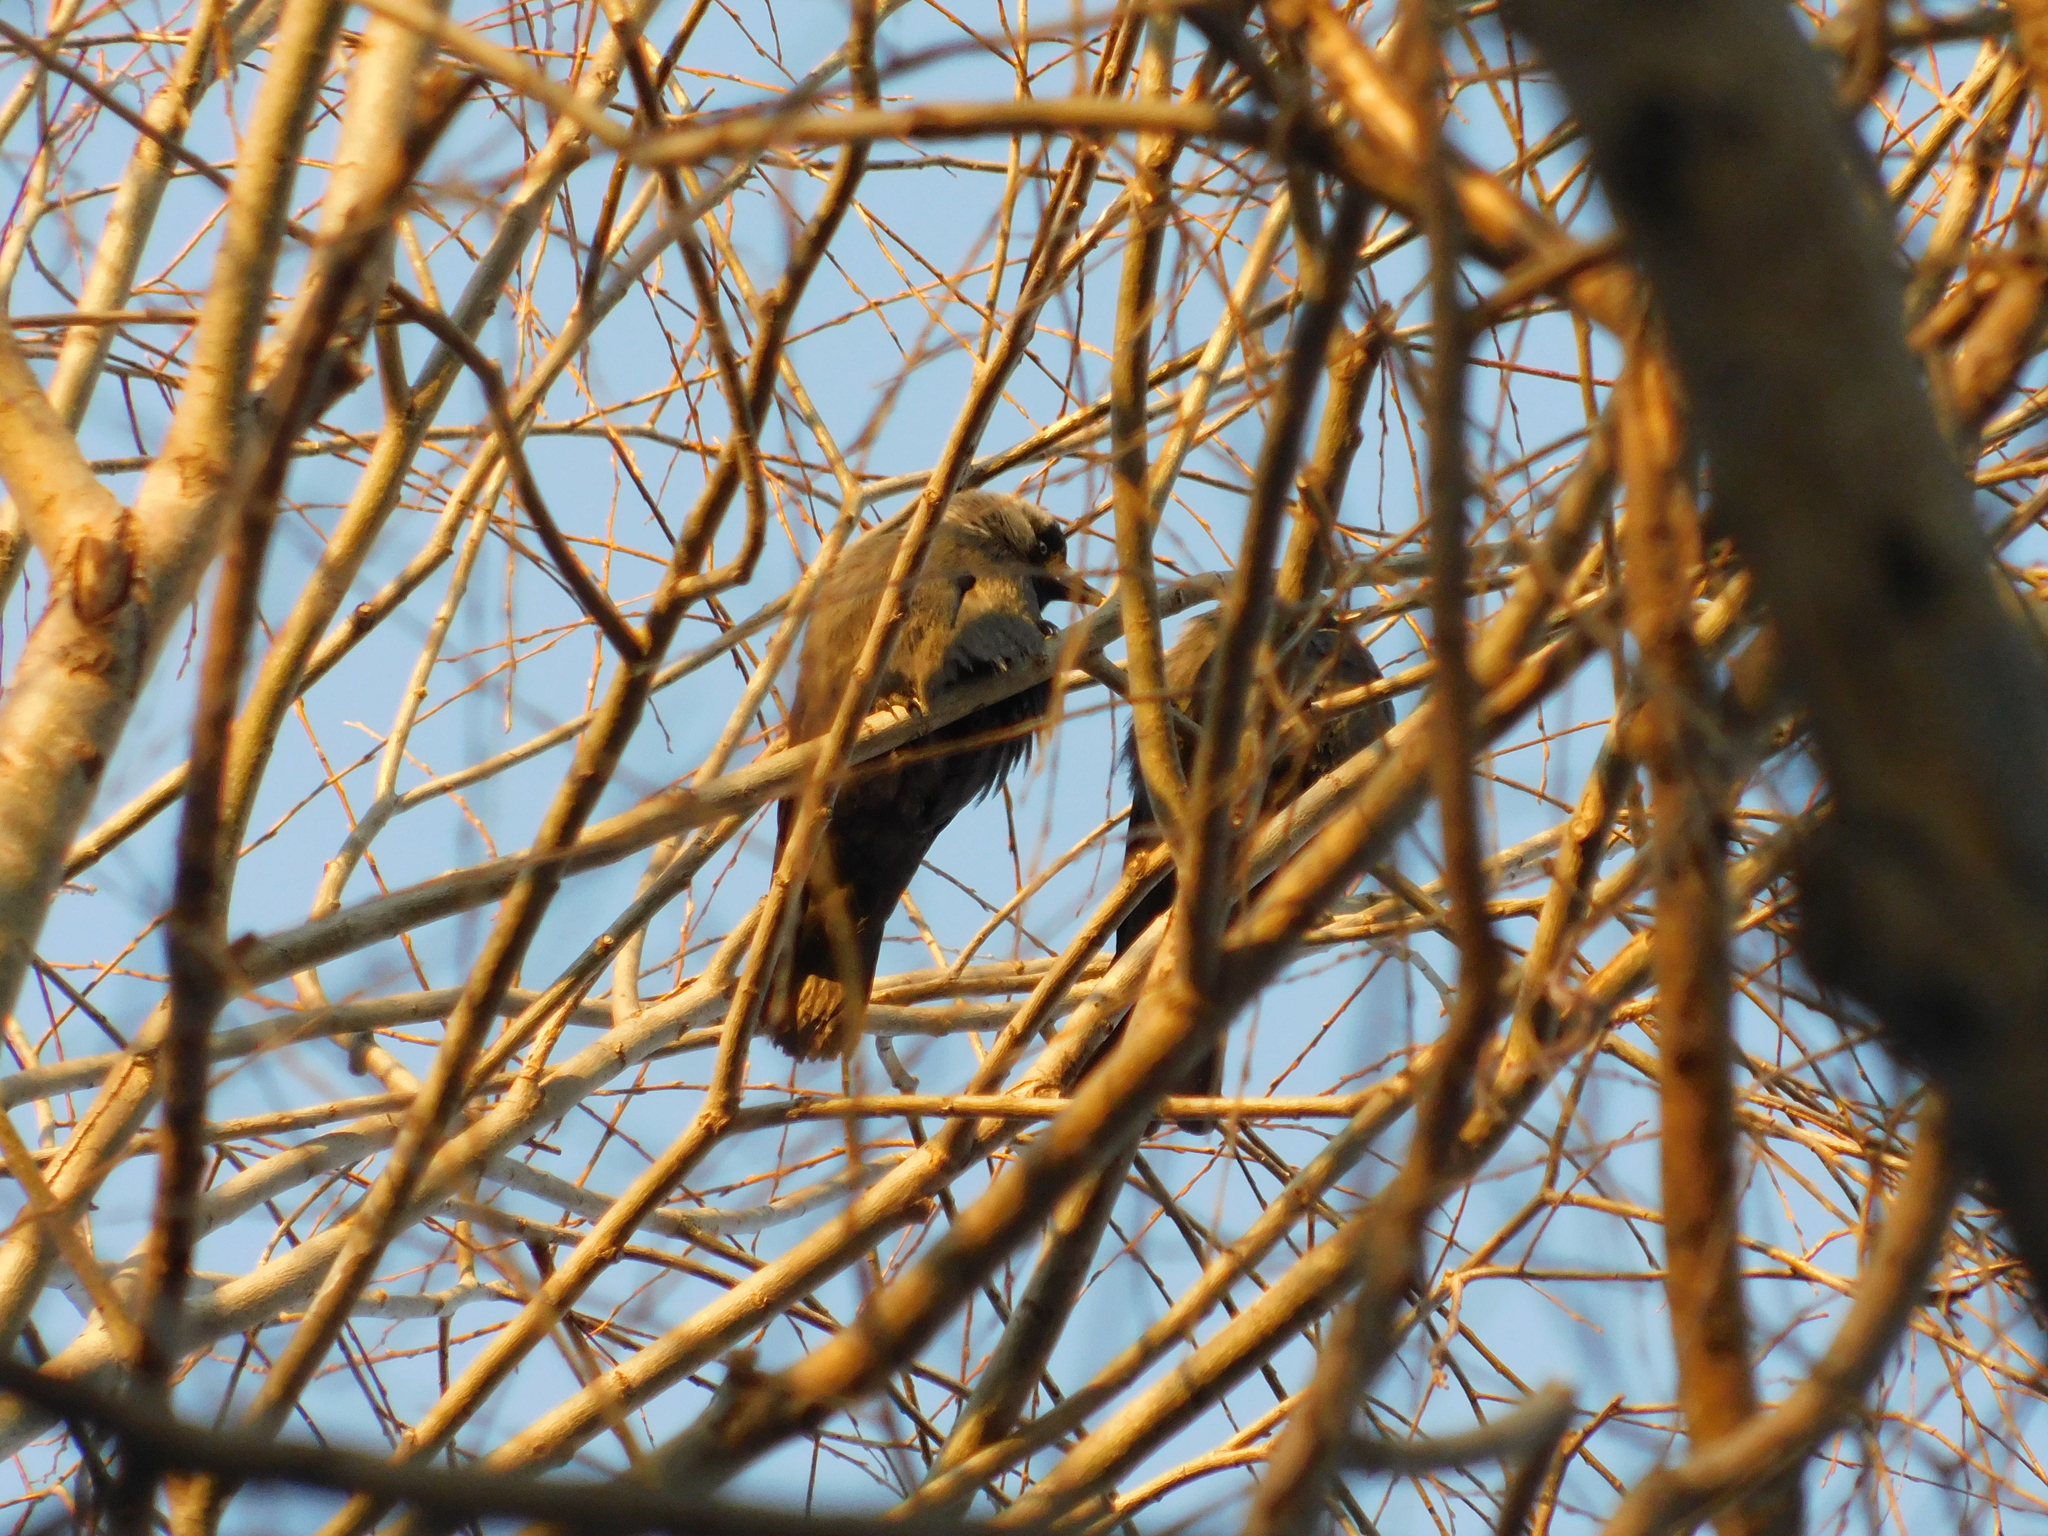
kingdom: Animalia
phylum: Chordata
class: Aves
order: Passeriformes
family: Corvidae
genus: Coloeus
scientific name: Coloeus monedula
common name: Western jackdaw
